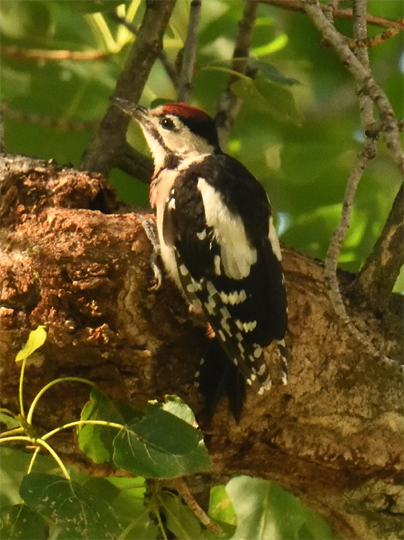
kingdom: Animalia
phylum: Chordata
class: Aves
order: Piciformes
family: Picidae
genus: Dendrocopos
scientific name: Dendrocopos syriacus
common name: Syrian woodpecker
